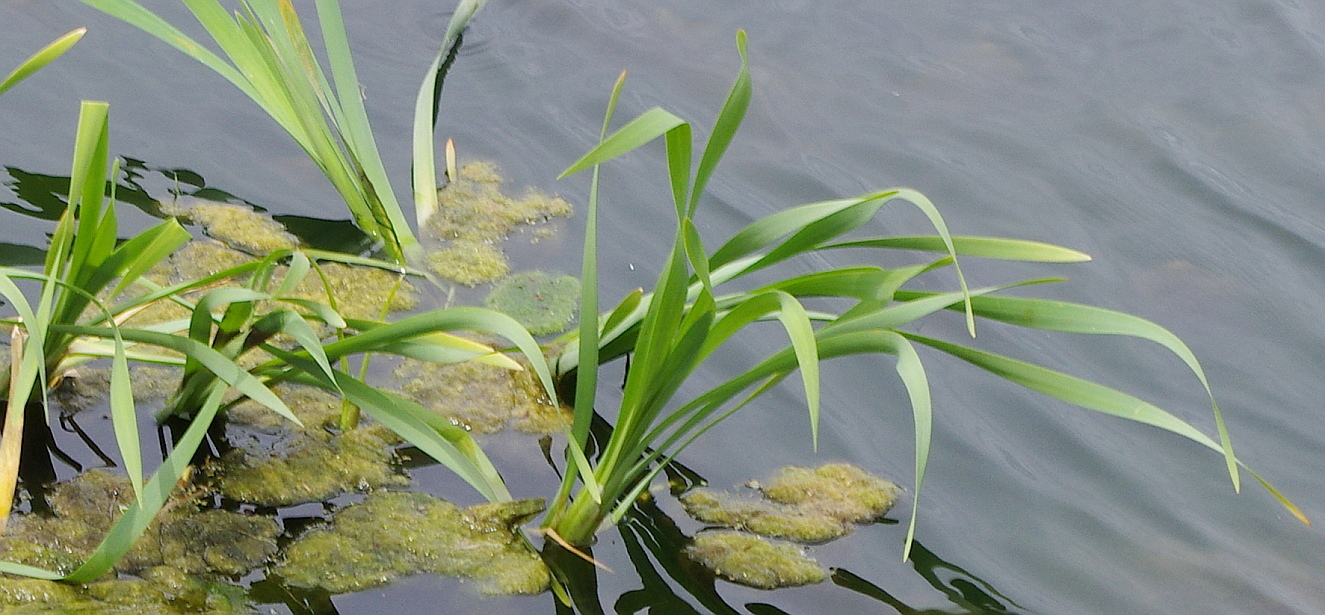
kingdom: Plantae
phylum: Tracheophyta
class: Liliopsida
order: Poales
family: Typhaceae
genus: Typha
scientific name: Typha latifolia
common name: Broadleaf cattail
